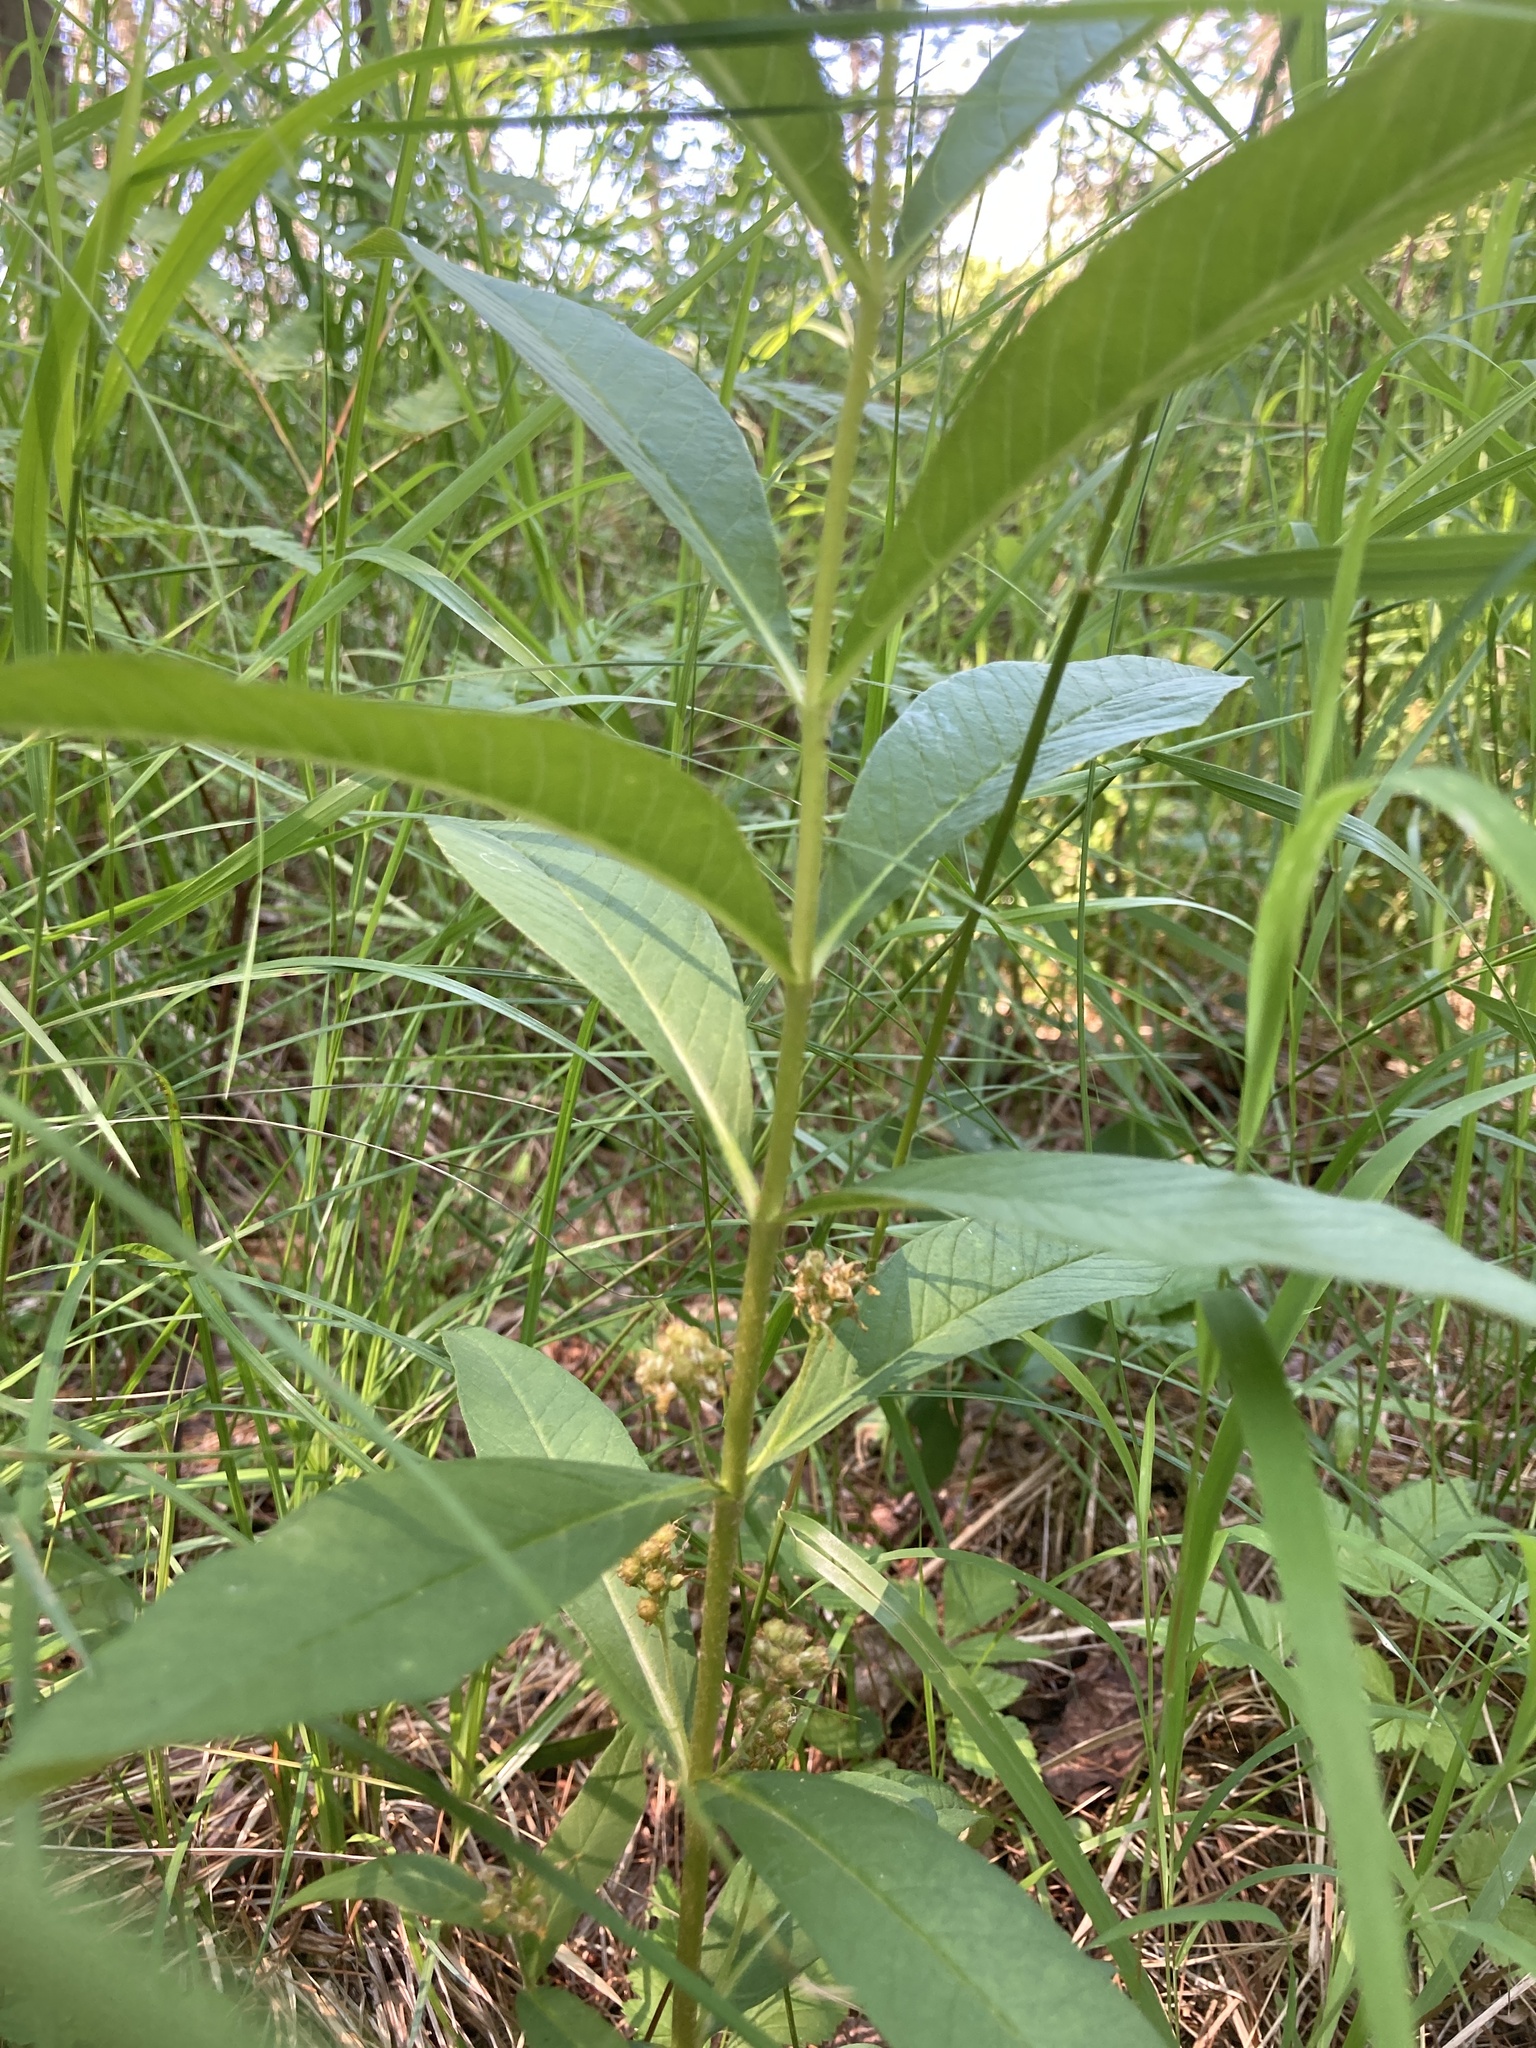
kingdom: Plantae
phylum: Tracheophyta
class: Magnoliopsida
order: Ericales
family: Primulaceae
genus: Lysimachia
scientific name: Lysimachia thyrsiflora
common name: Tufted loosestrife
